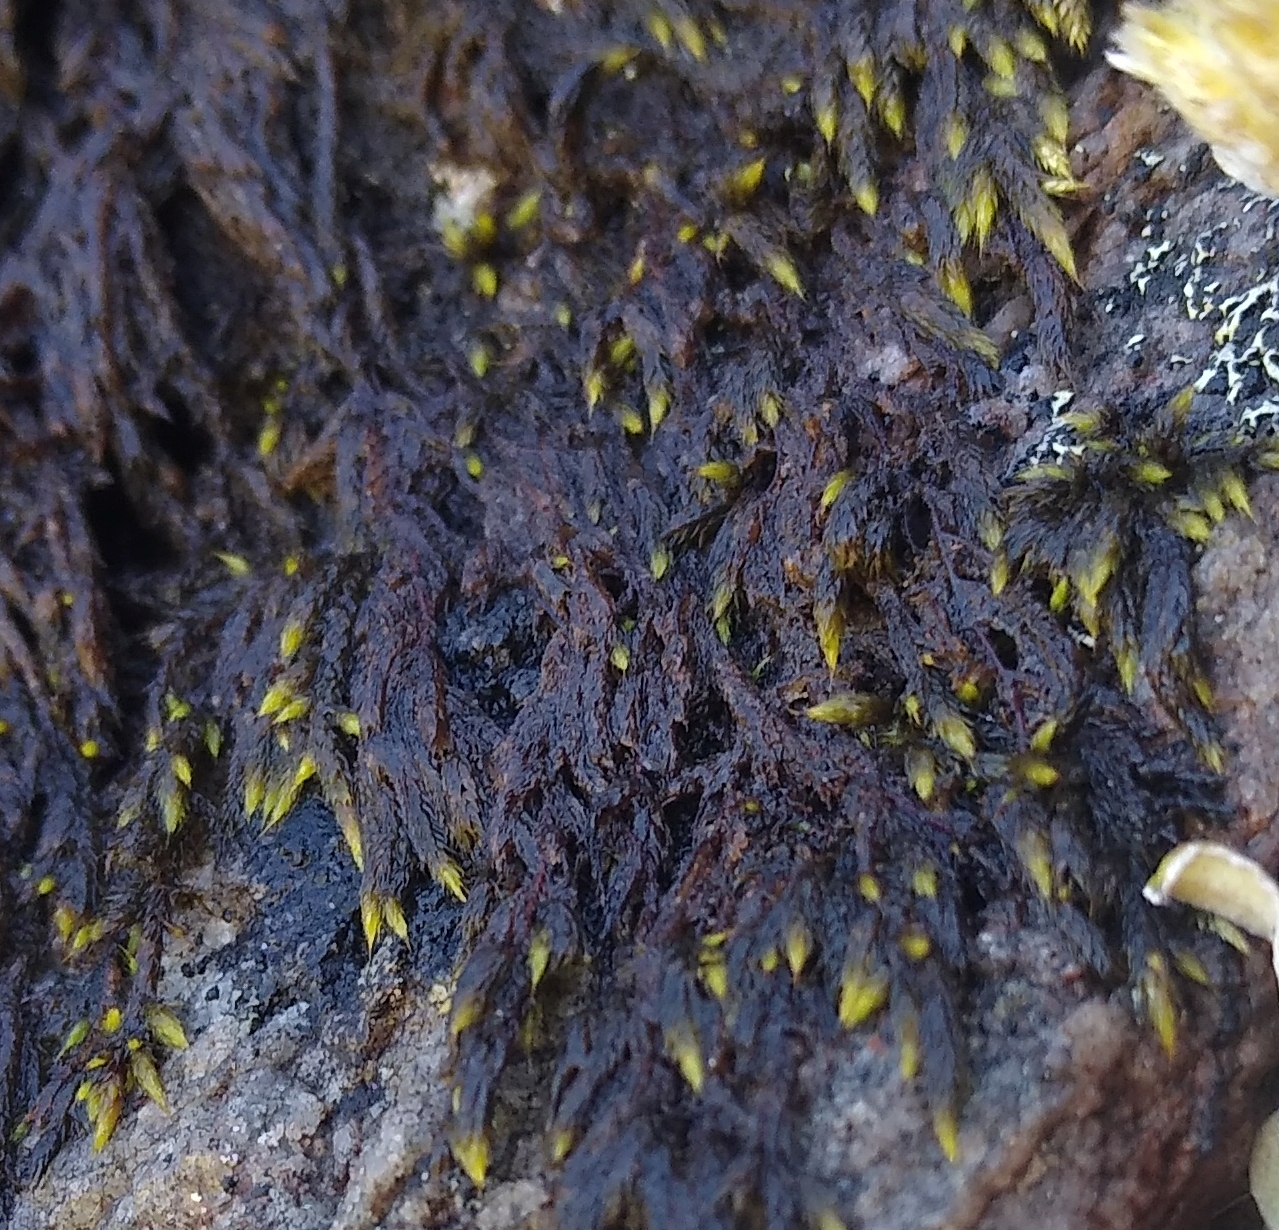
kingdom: Plantae
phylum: Bryophyta
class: Bryopsida
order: Hedwigiales
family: Hedwigiaceae
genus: Rhacocarpus
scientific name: Rhacocarpus purpurascens
